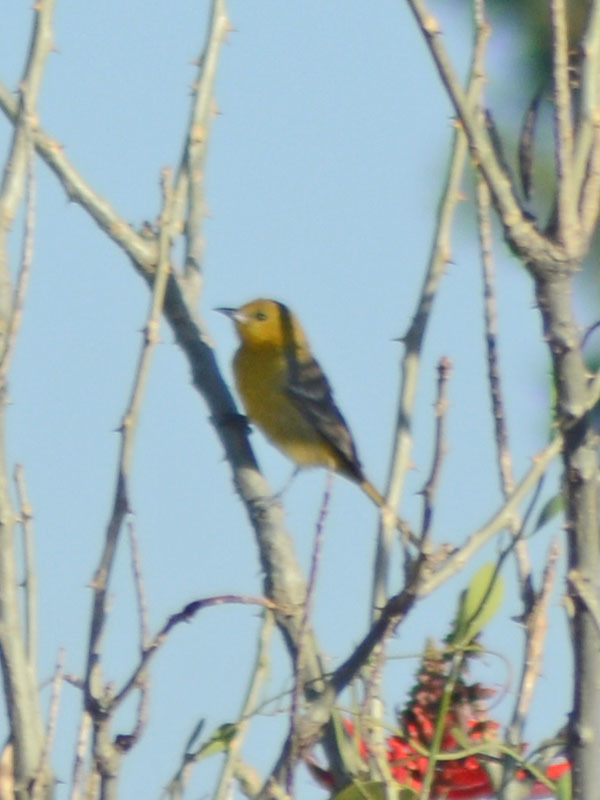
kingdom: Animalia
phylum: Chordata
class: Aves
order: Passeriformes
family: Icteridae
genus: Icterus
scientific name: Icterus spurius
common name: Orchard oriole
